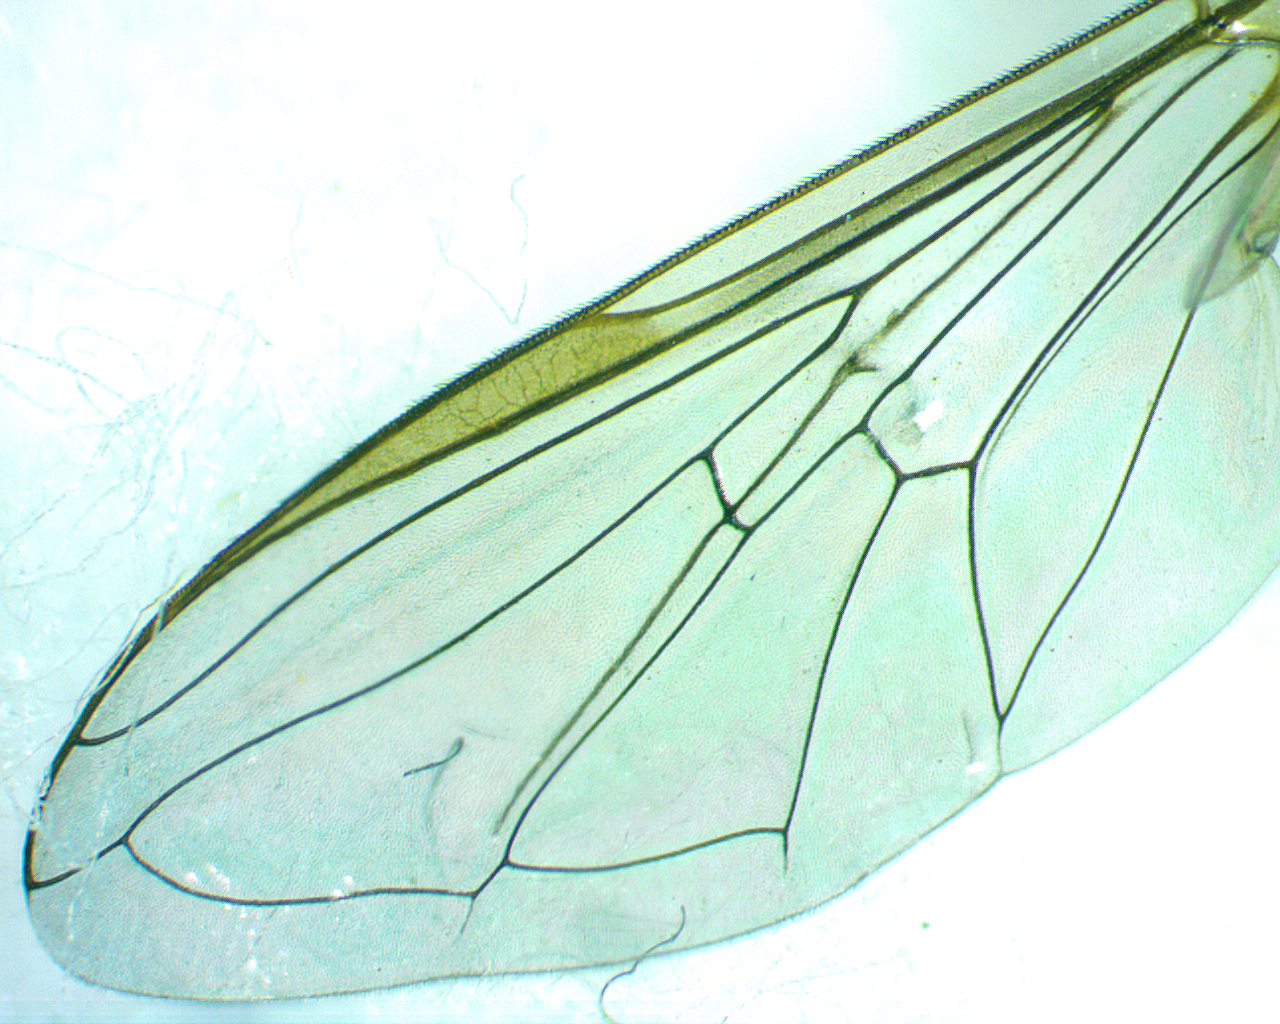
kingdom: Animalia
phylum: Arthropoda
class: Insecta
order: Diptera
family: Syrphidae
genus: Eupeodes
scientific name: Eupeodes americanus
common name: Long-tailed aphideater
